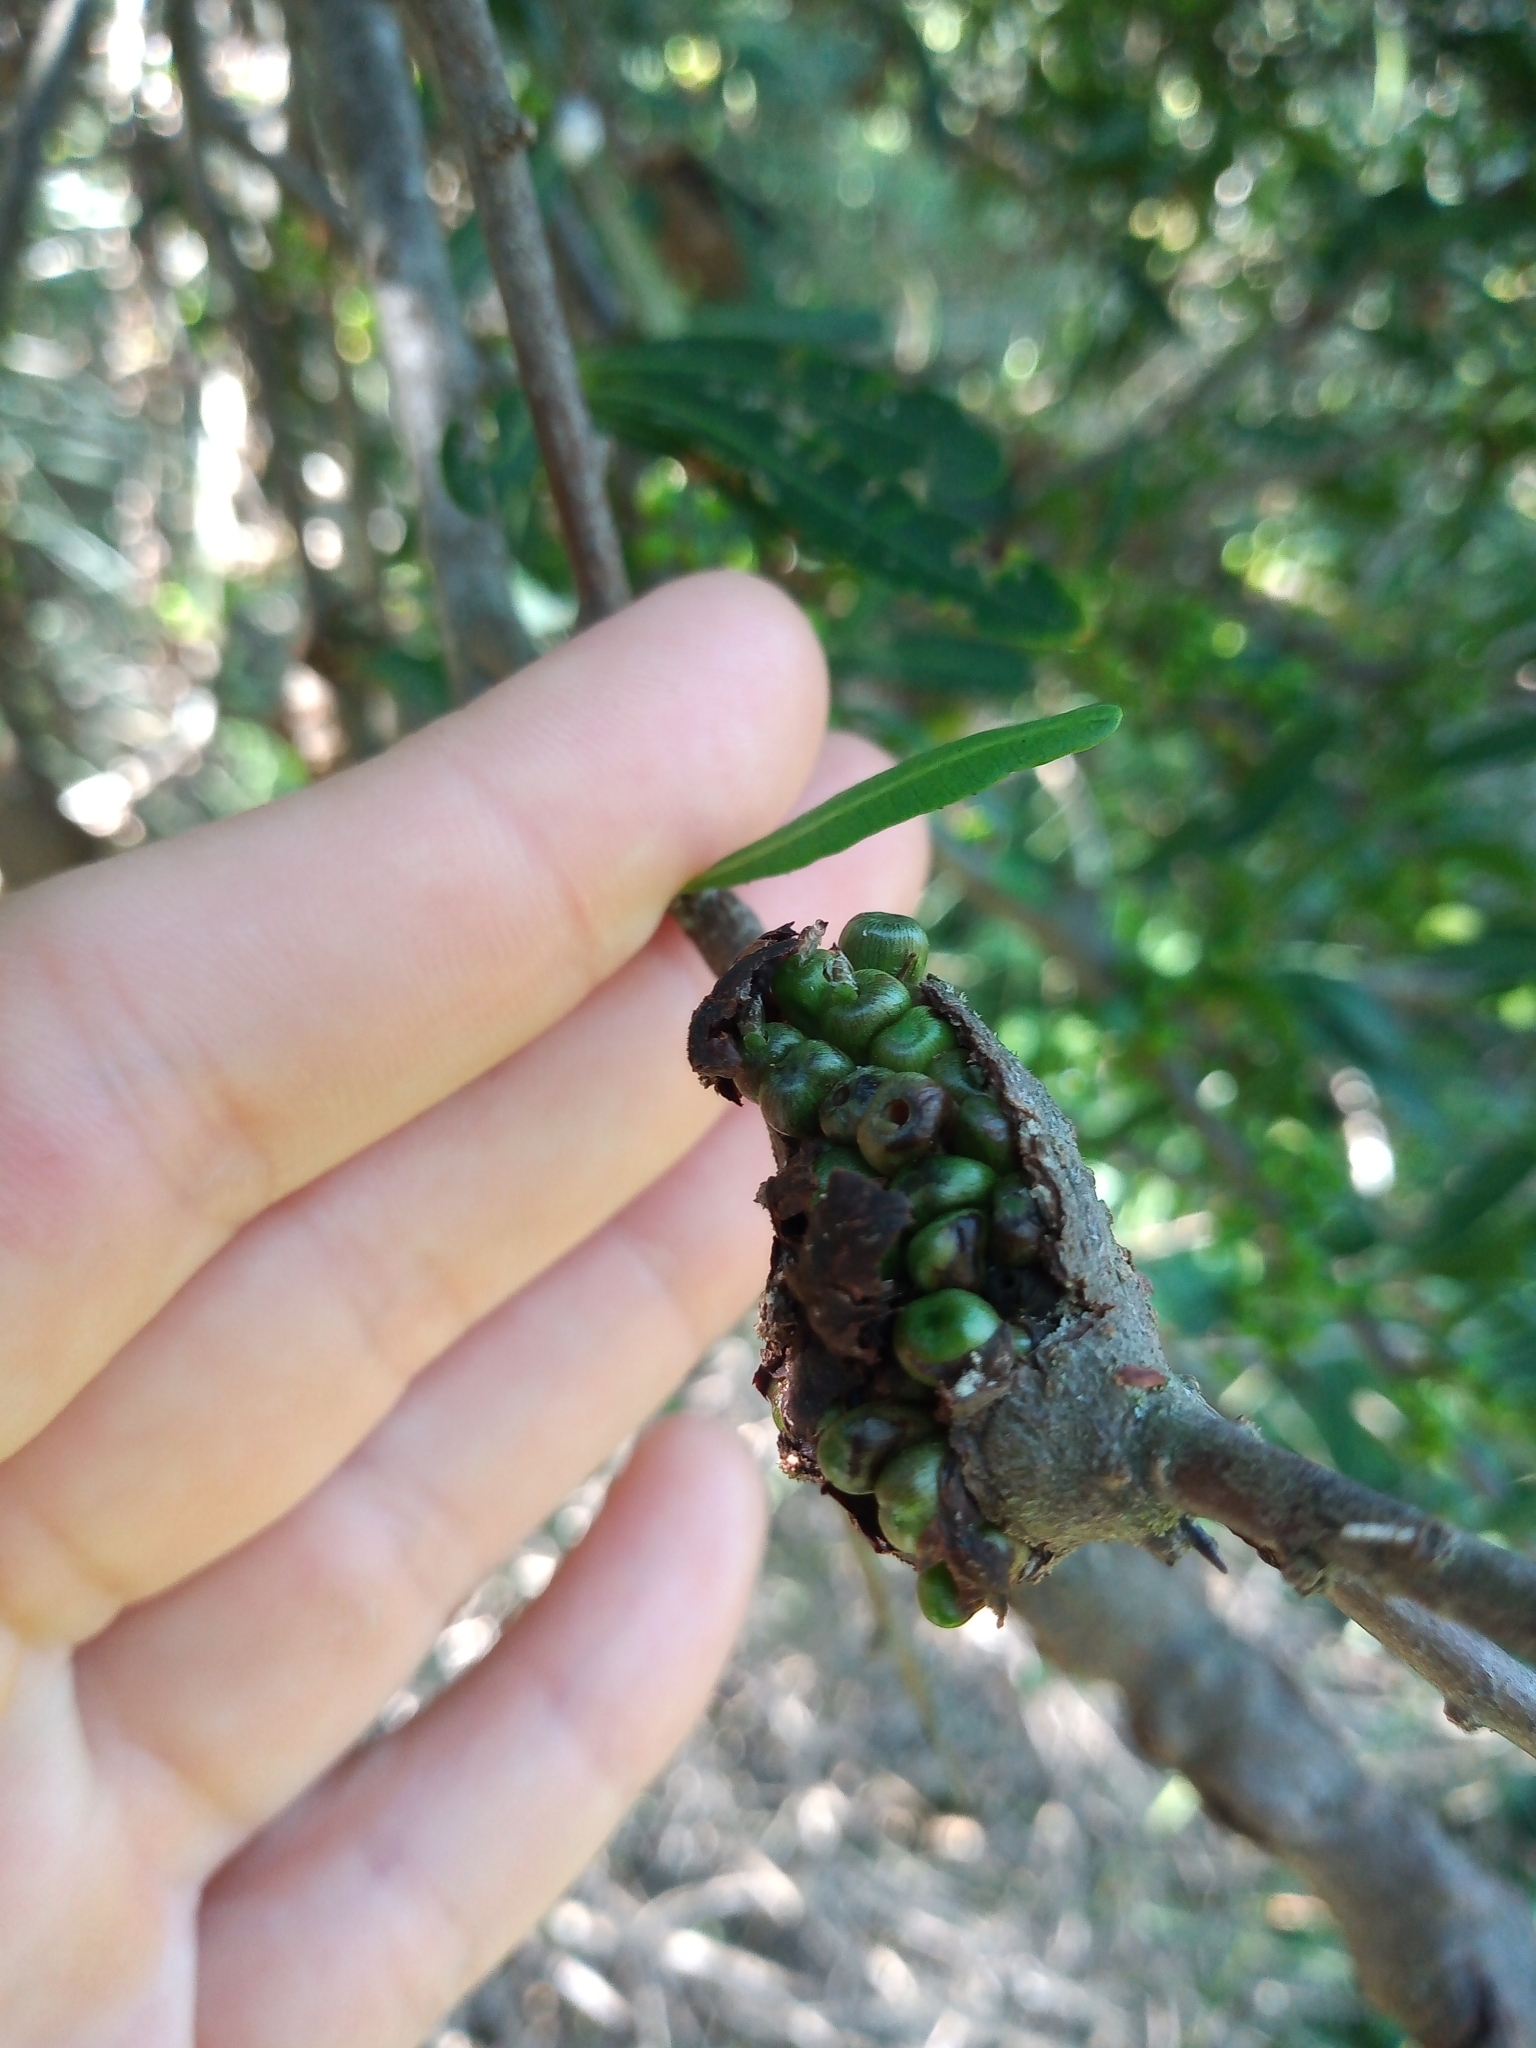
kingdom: Animalia
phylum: Arthropoda
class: Insecta
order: Lepidoptera
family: Cecidosidae
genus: Cecidonius
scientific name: Cecidonius pampeanus
